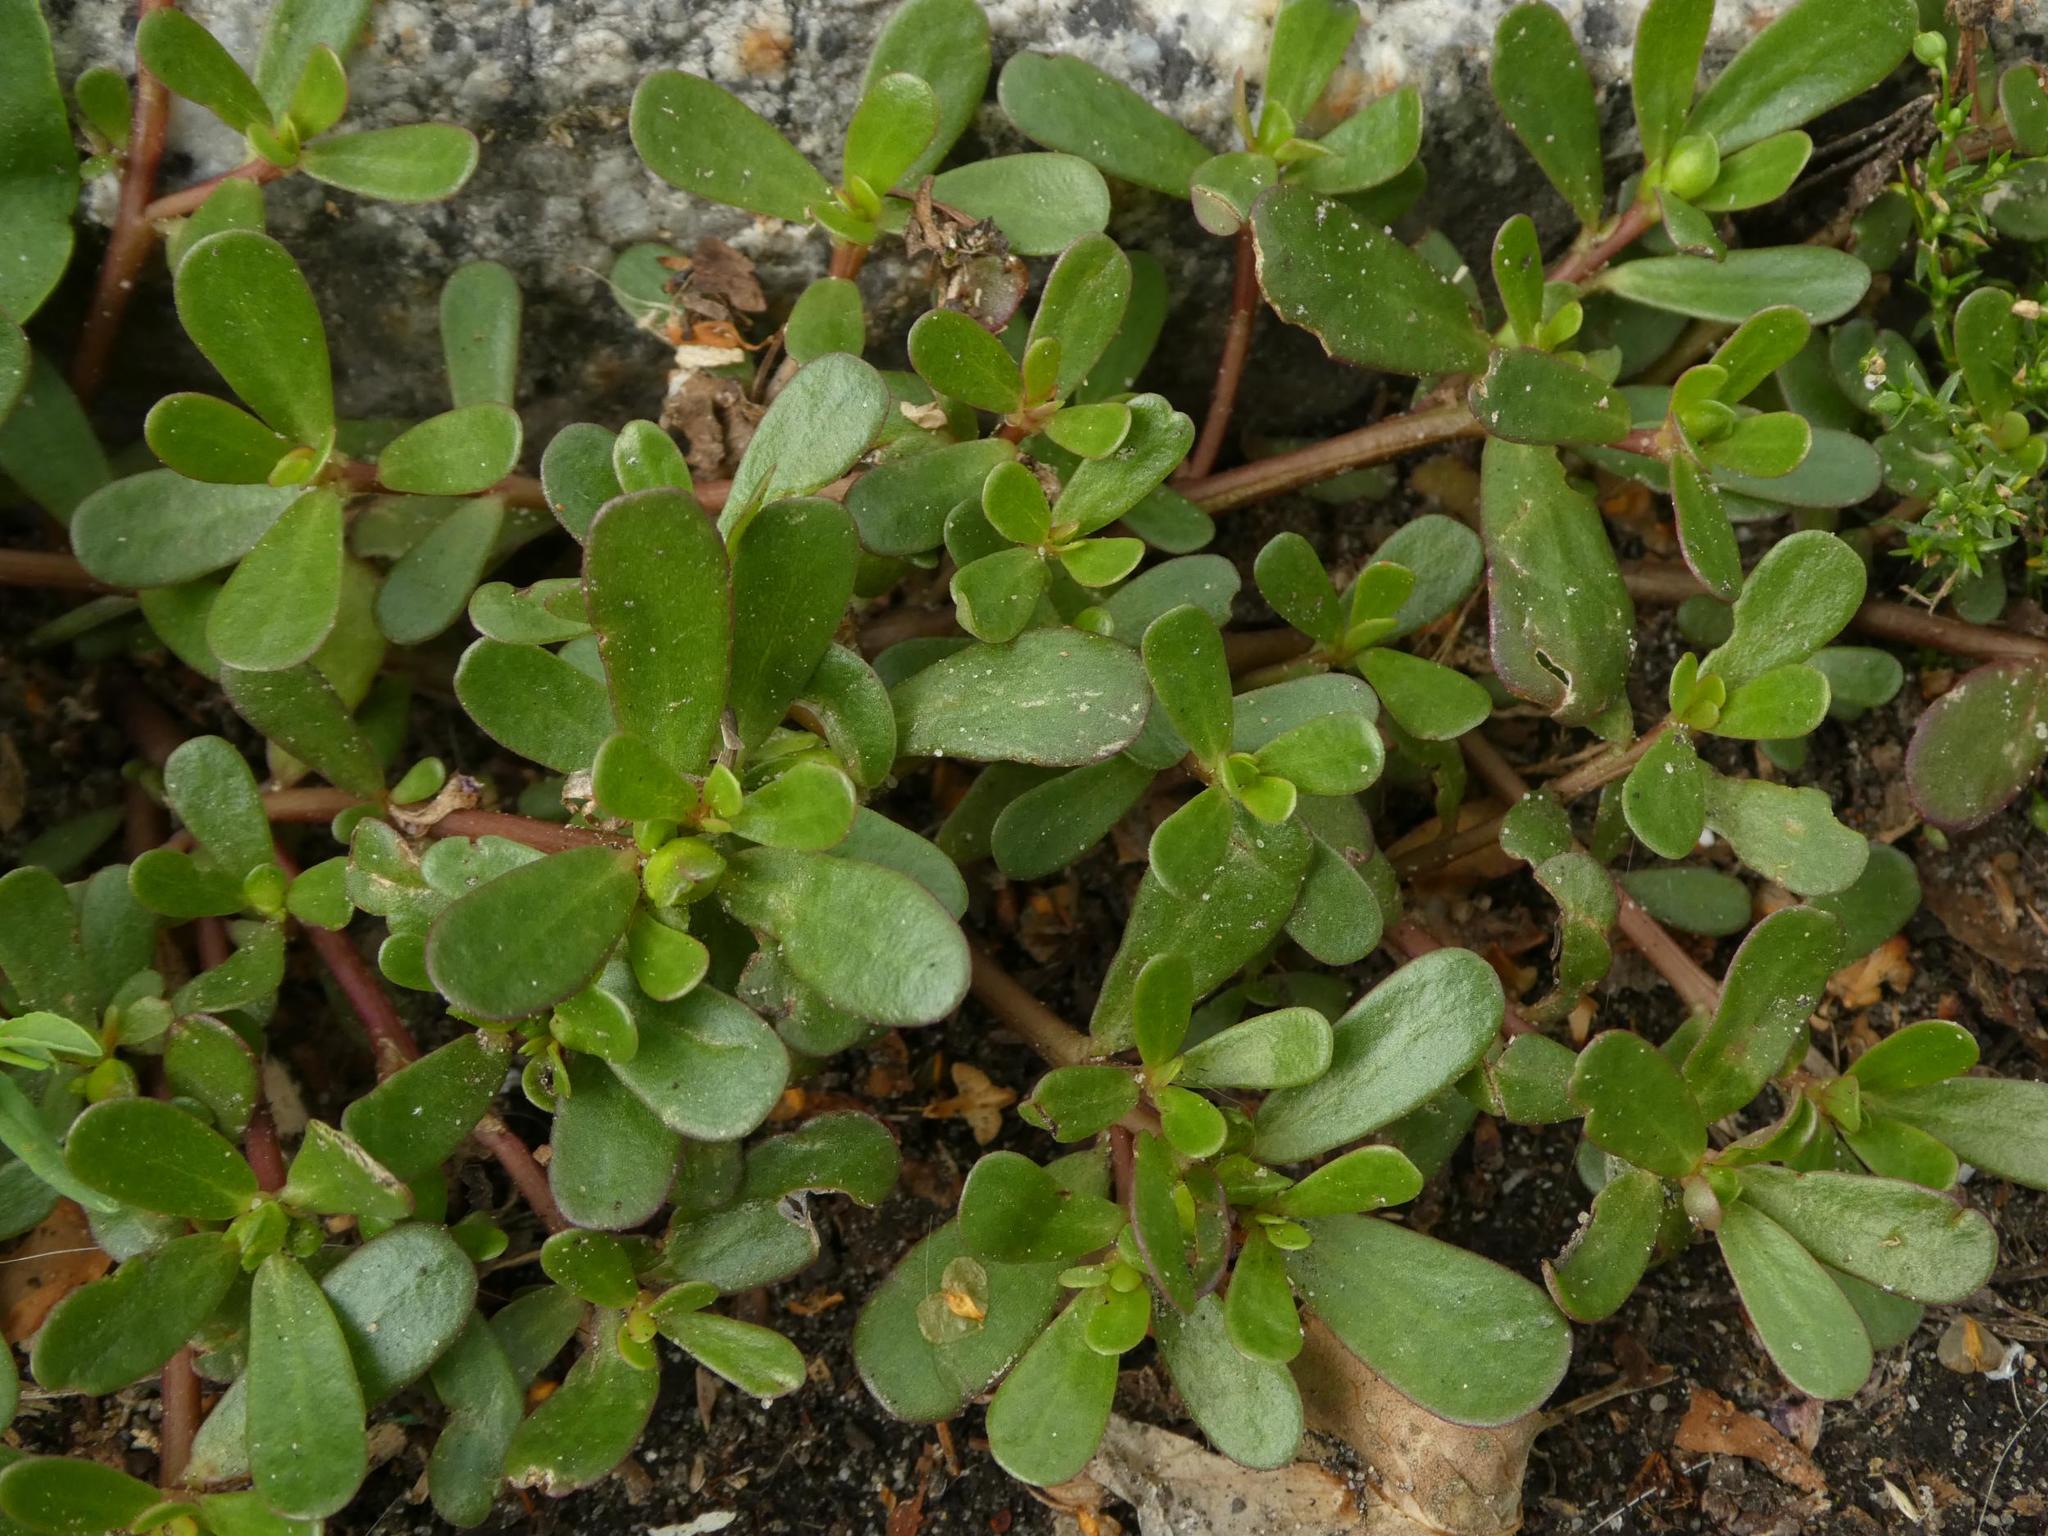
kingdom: Plantae
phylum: Tracheophyta
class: Magnoliopsida
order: Caryophyllales
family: Portulacaceae
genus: Portulaca
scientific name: Portulaca oleracea
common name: Common purslane
